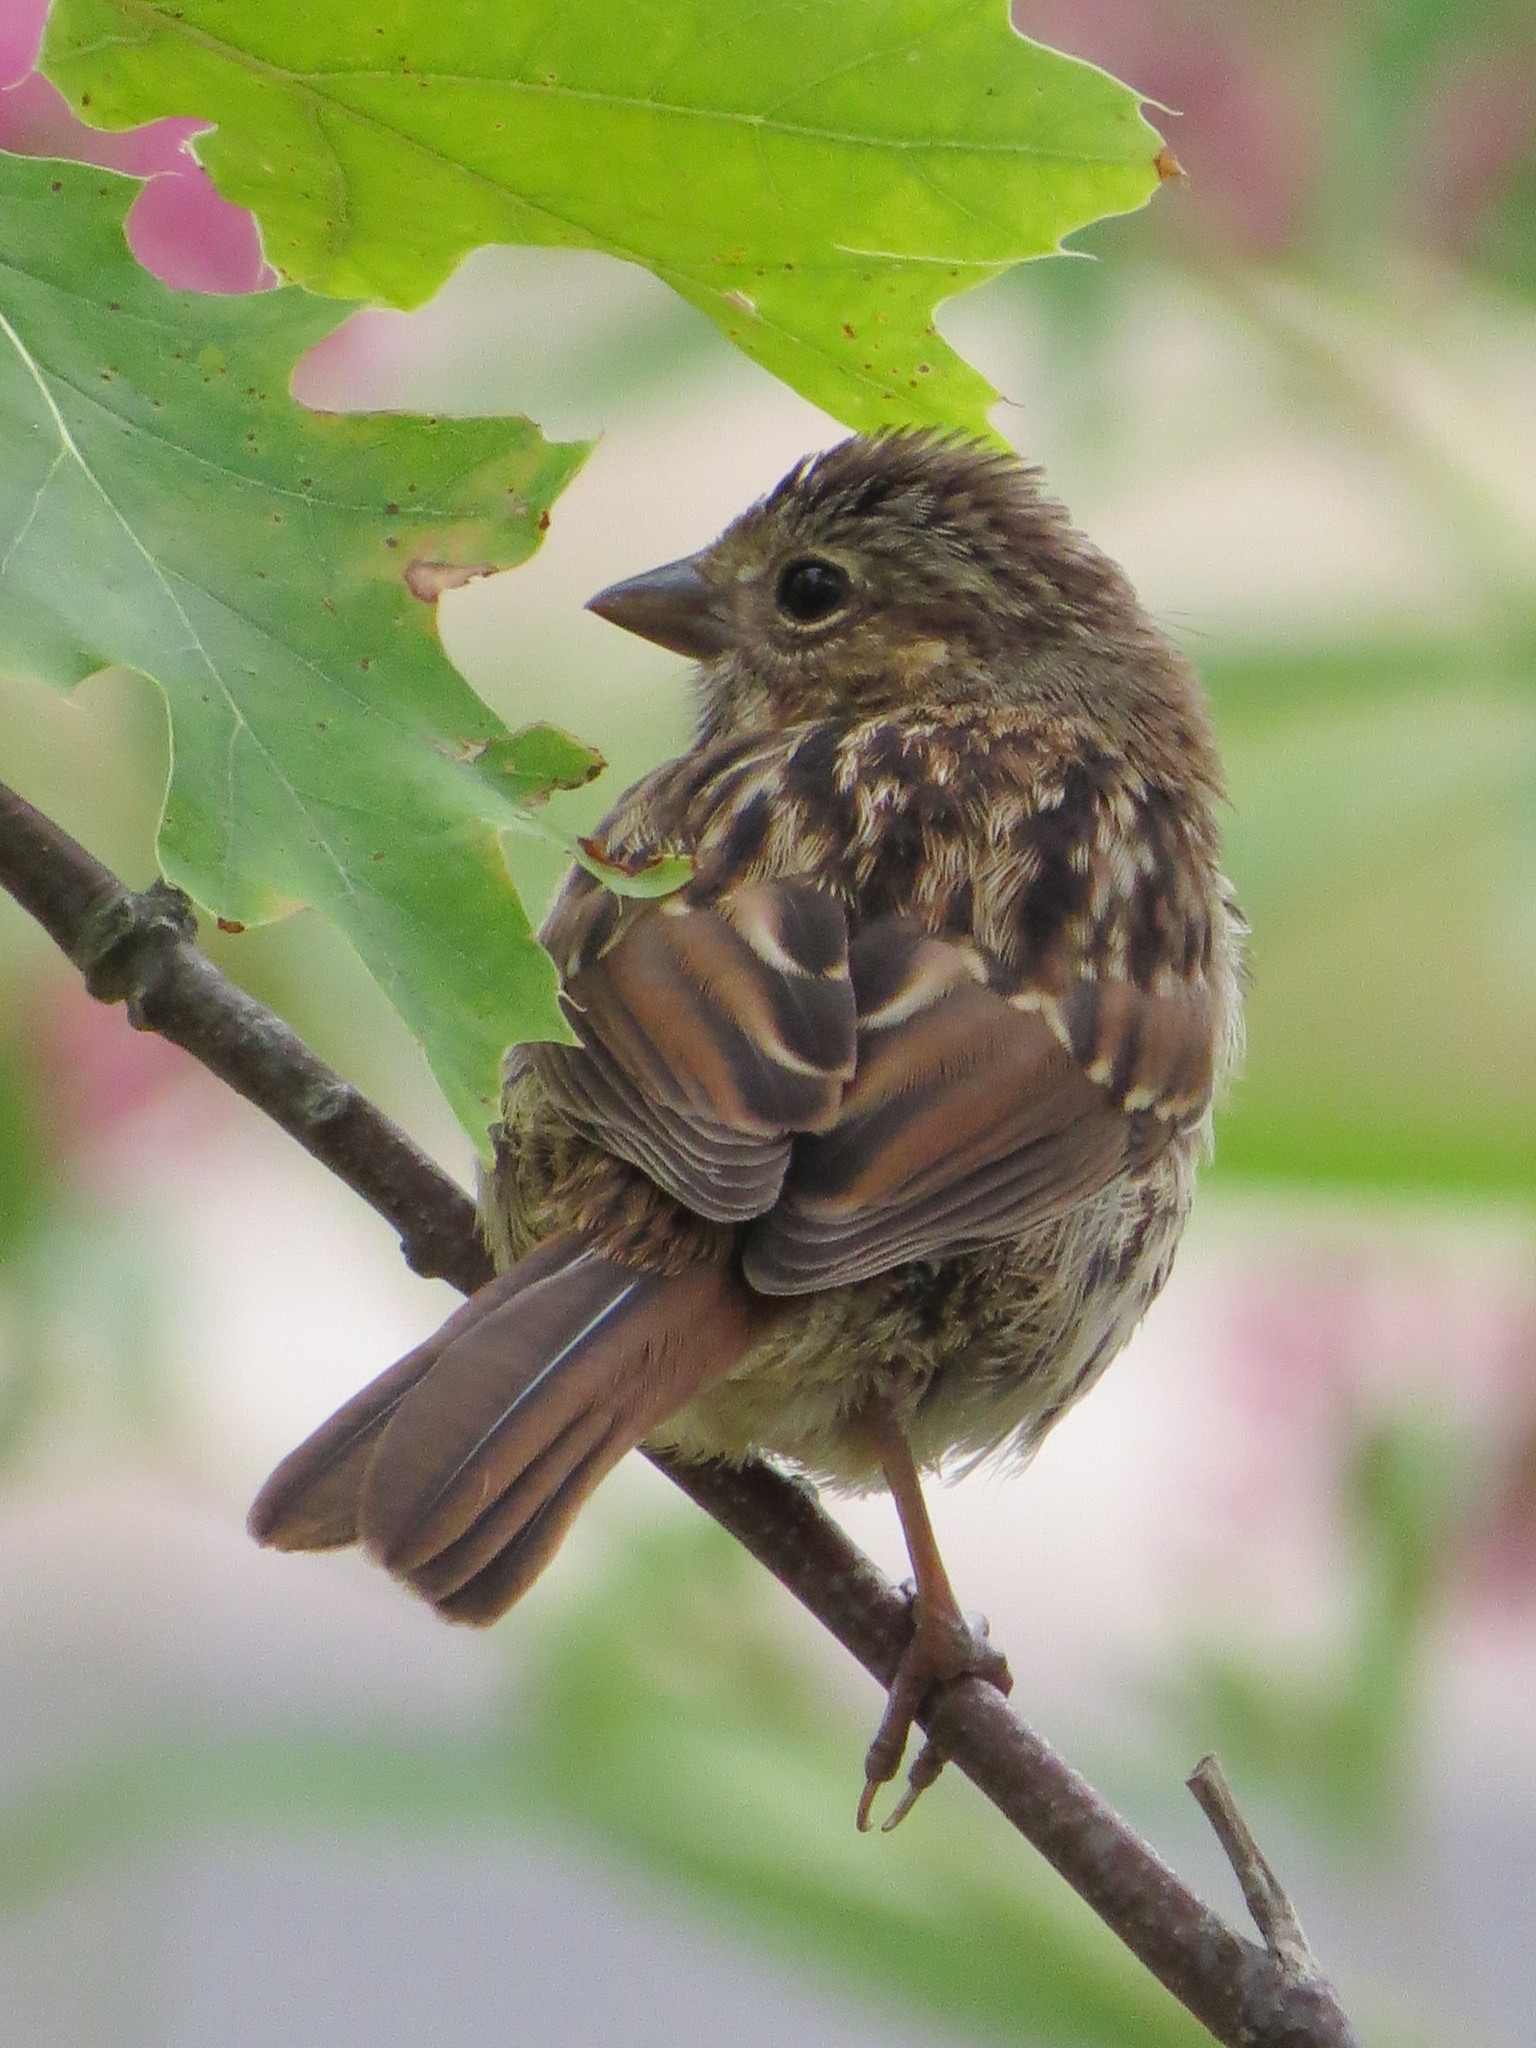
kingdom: Animalia
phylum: Chordata
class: Aves
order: Passeriformes
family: Passerellidae
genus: Melospiza
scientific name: Melospiza melodia
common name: Song sparrow
